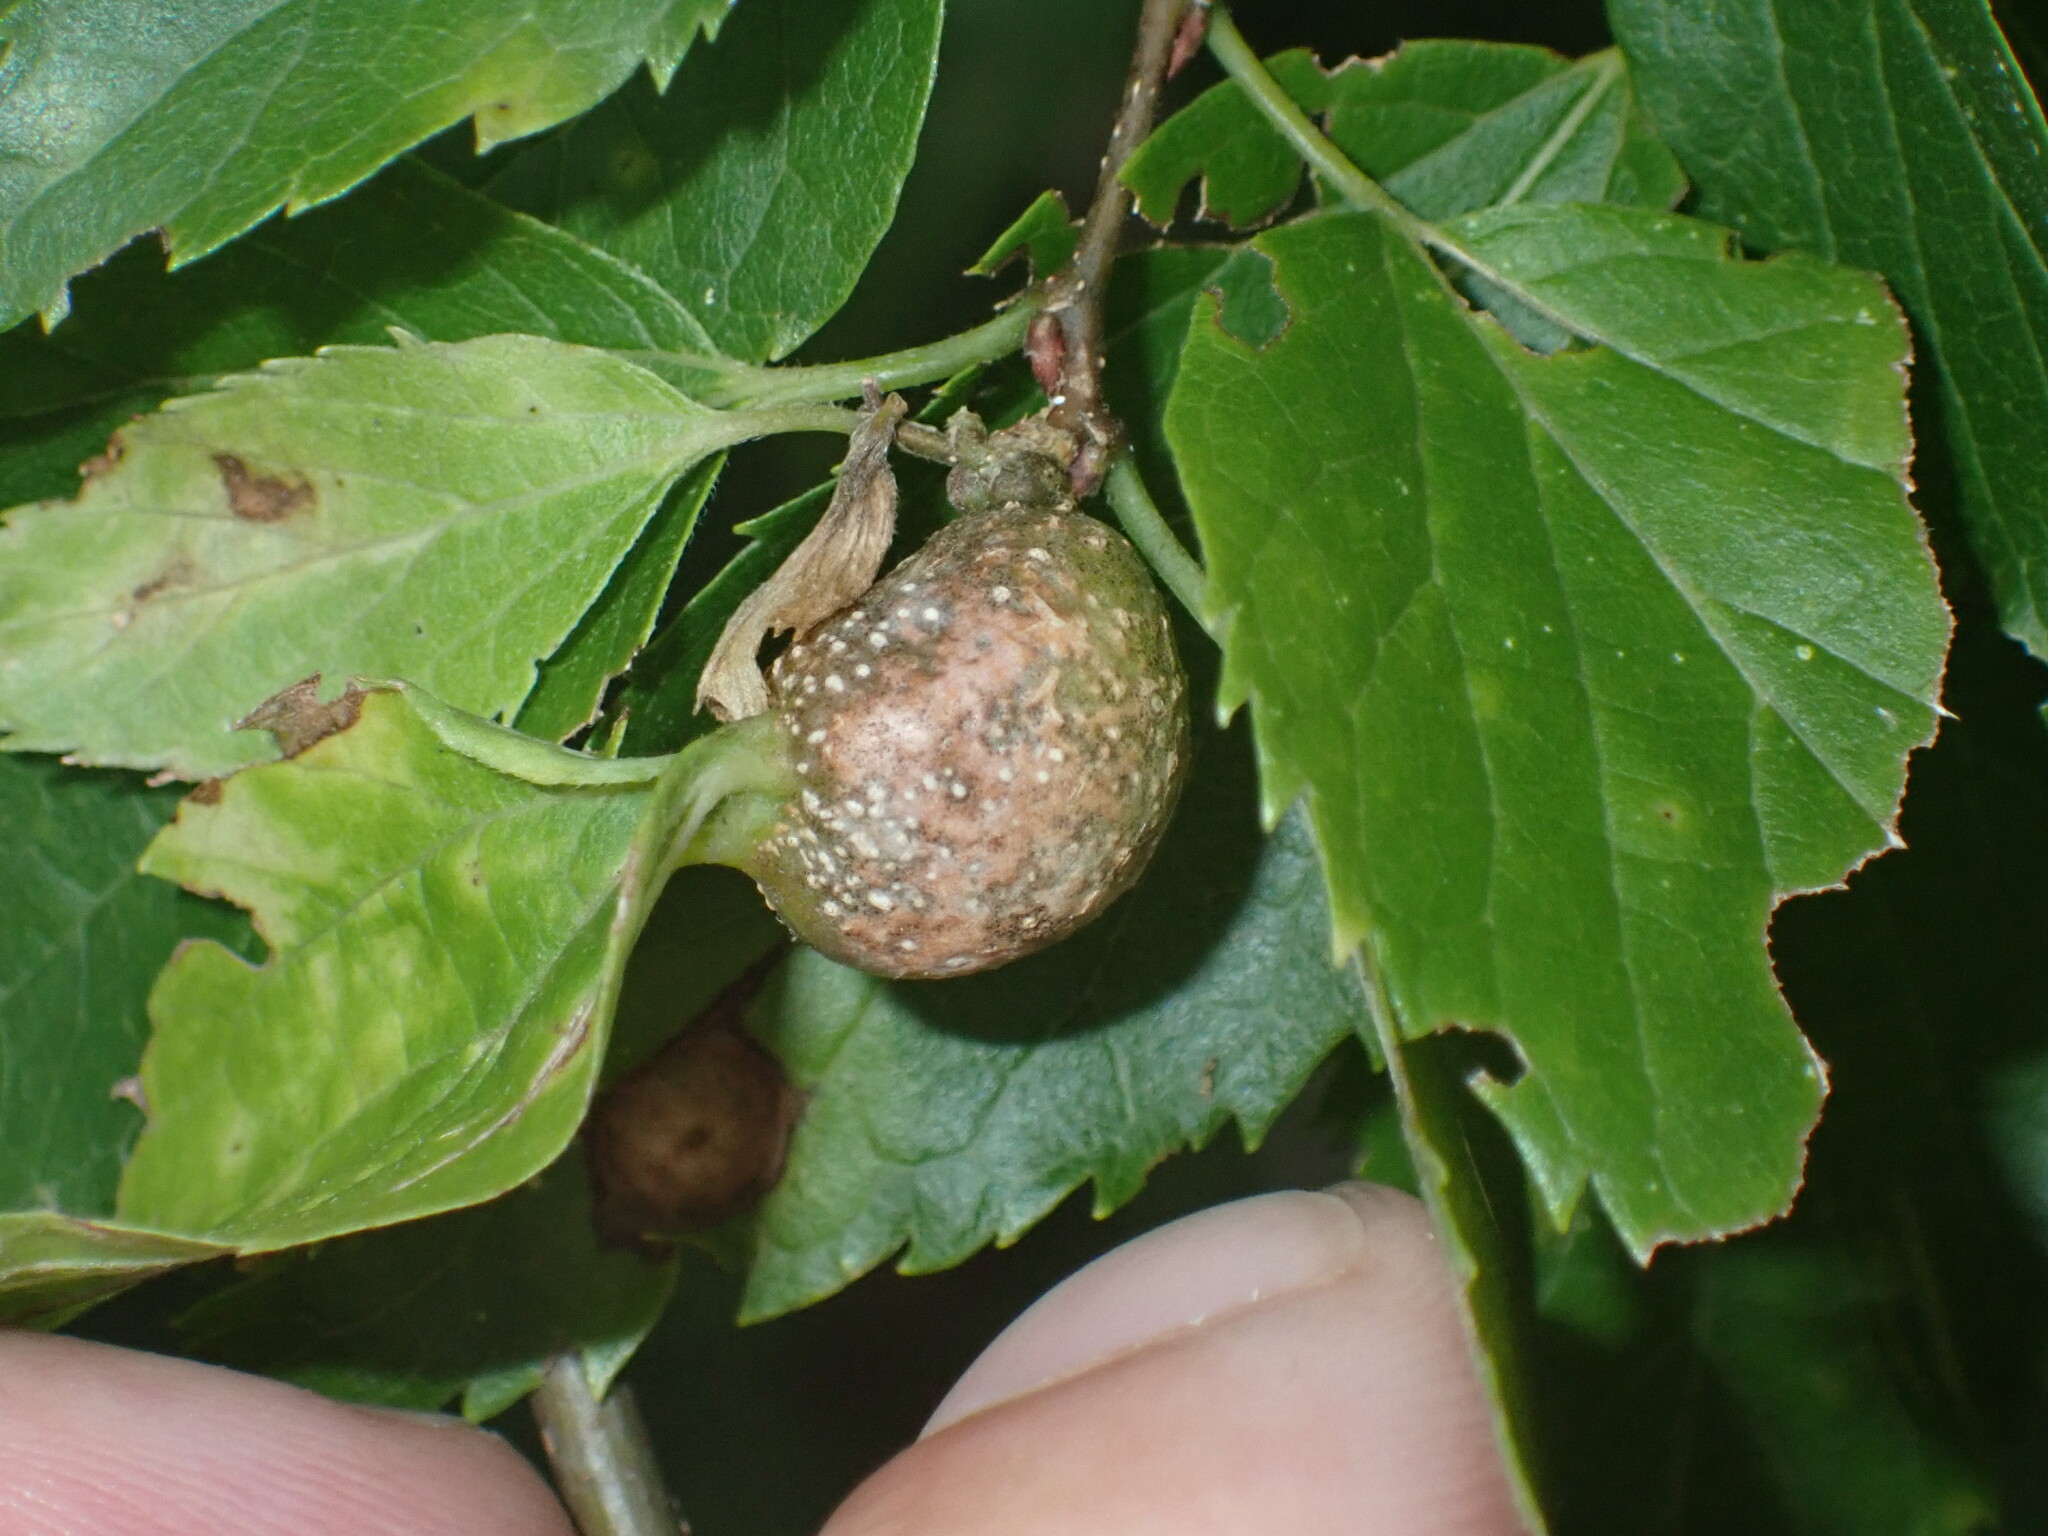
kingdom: Animalia
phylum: Arthropoda
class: Insecta
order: Hemiptera
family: Aphalaridae
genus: Pachypsylla
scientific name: Pachypsylla venusta
